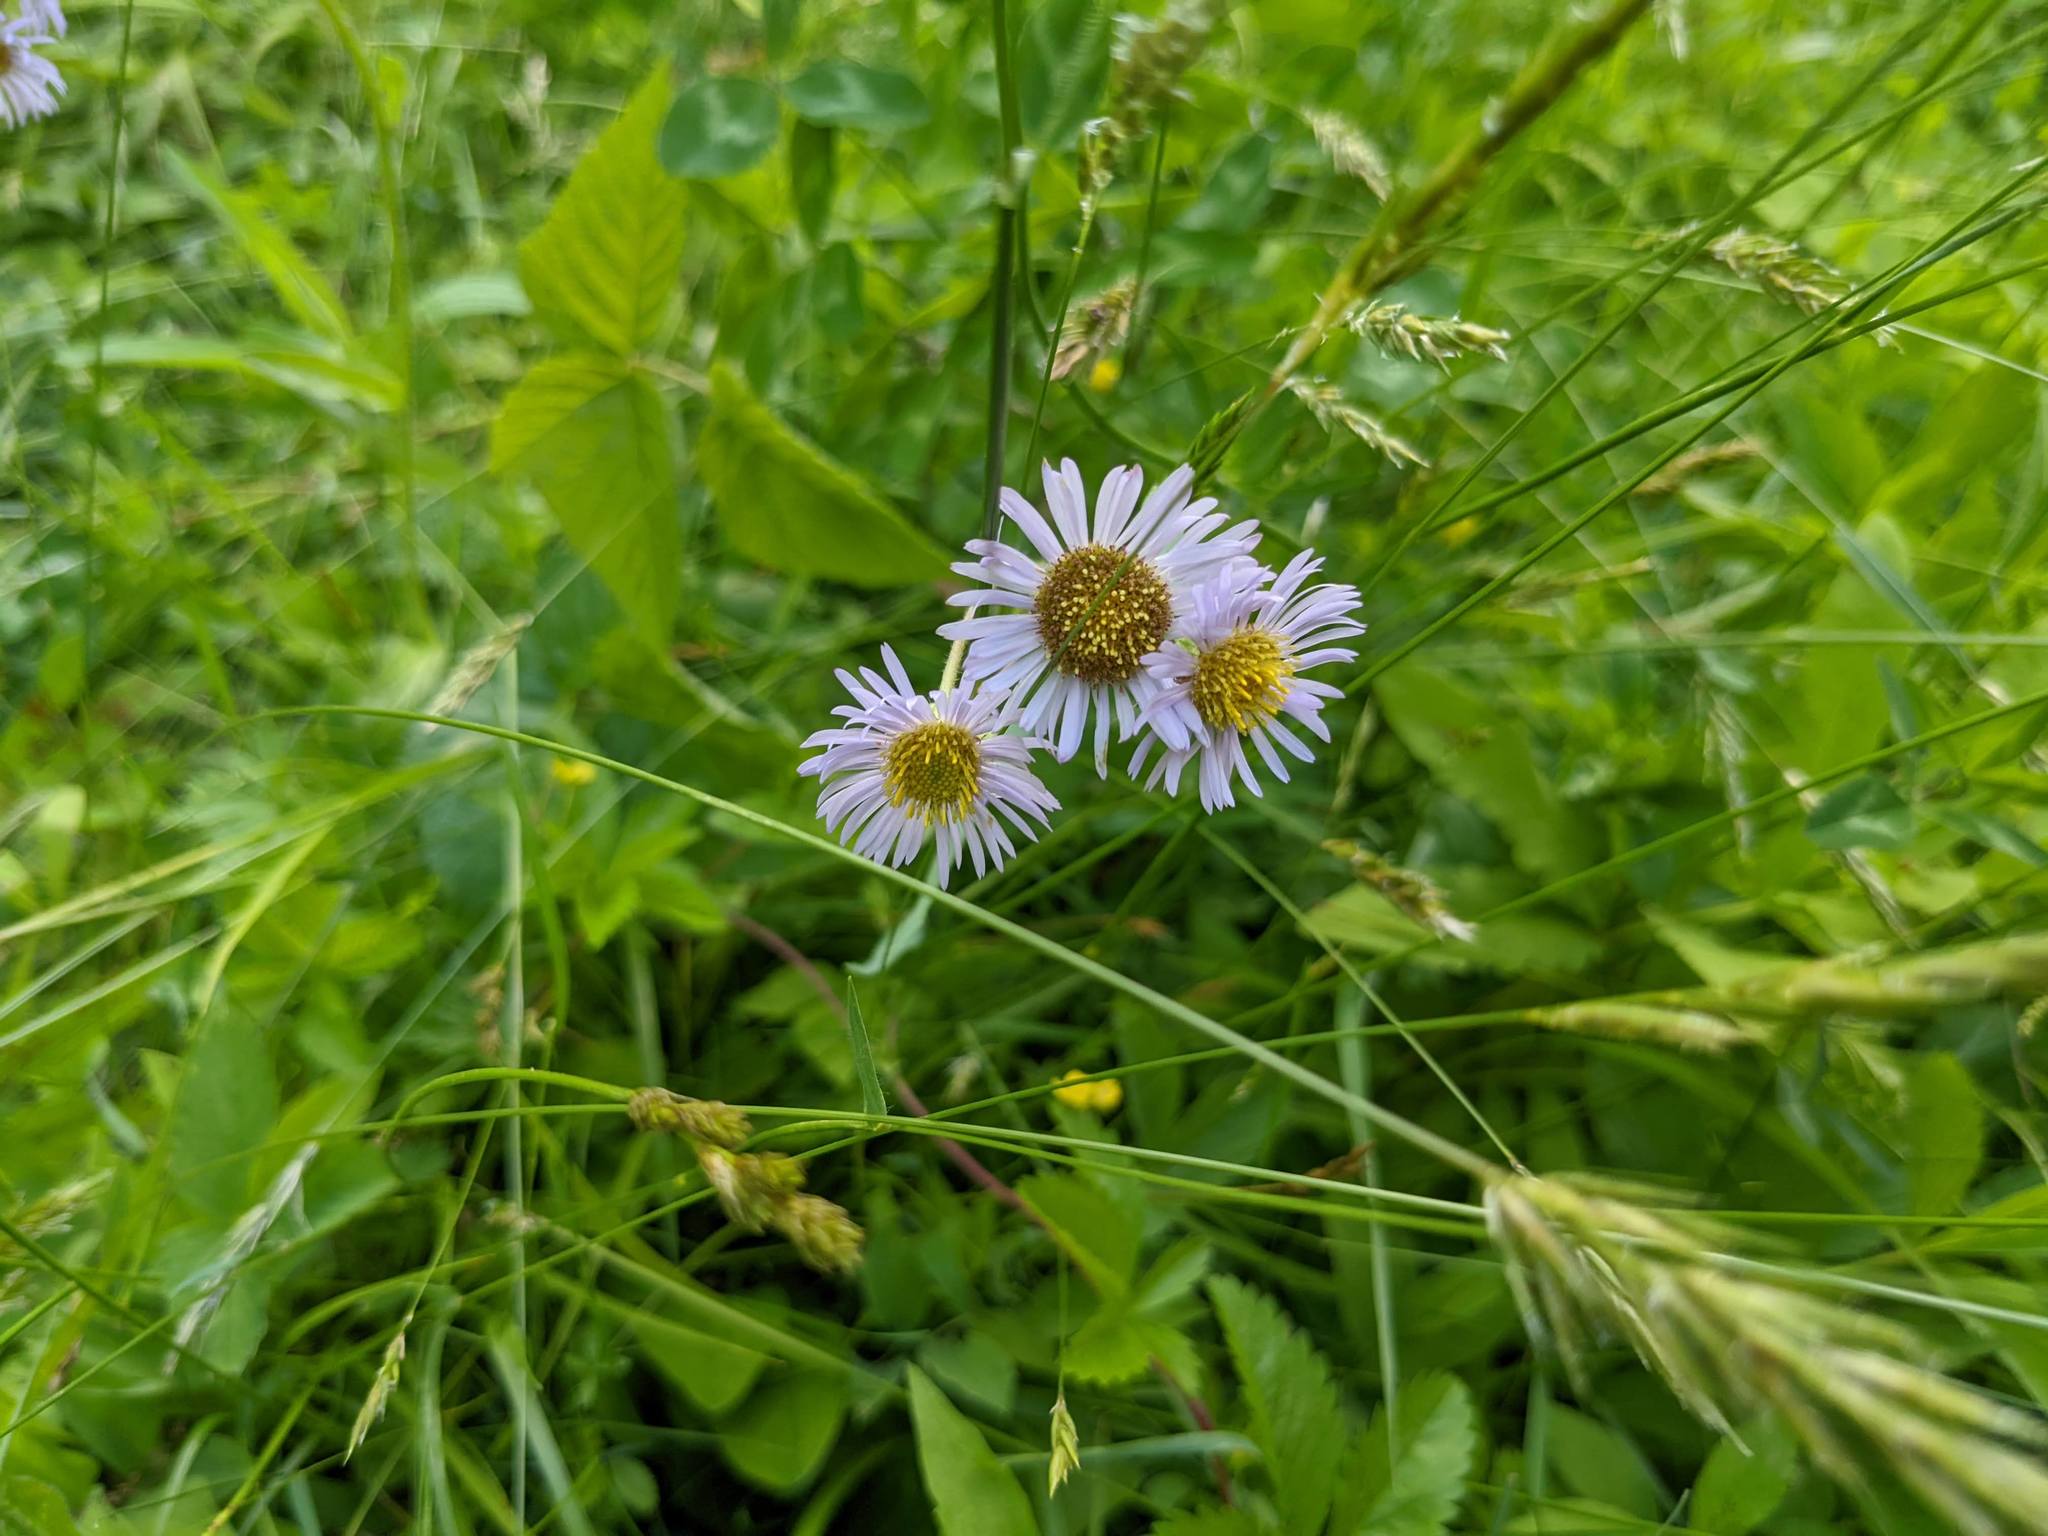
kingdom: Plantae
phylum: Tracheophyta
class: Magnoliopsida
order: Asterales
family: Asteraceae
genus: Erigeron
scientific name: Erigeron pulchellus
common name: Hairy fleabane
